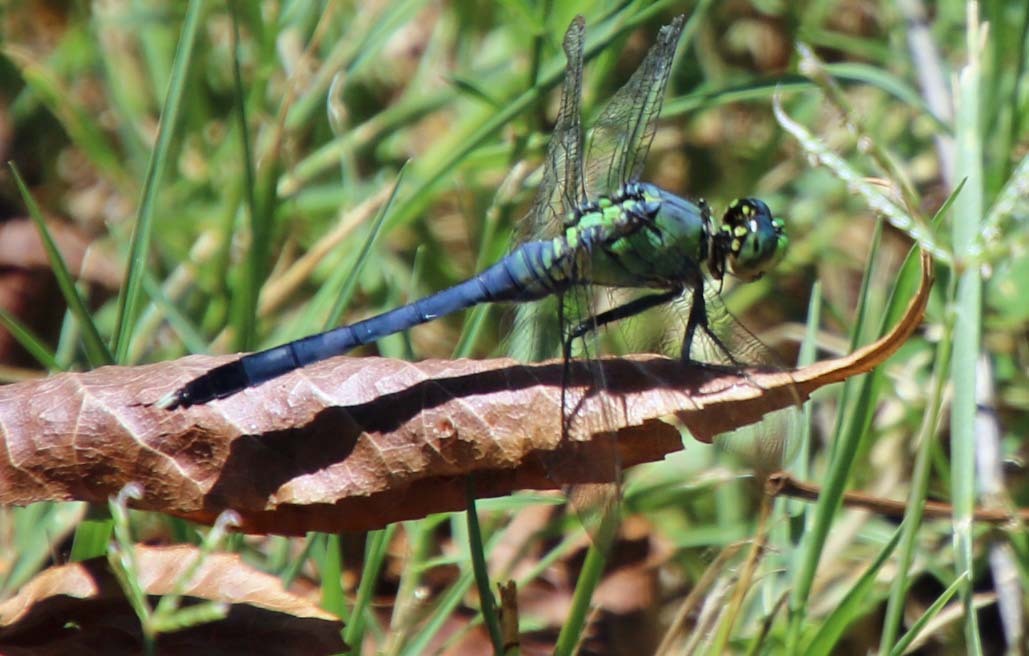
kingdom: Animalia
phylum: Arthropoda
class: Insecta
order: Odonata
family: Libellulidae
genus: Erythemis
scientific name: Erythemis simplicicollis
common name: Eastern pondhawk
